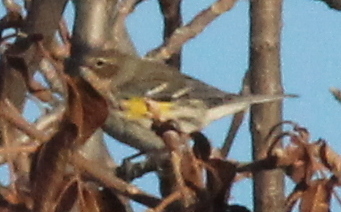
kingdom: Animalia
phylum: Chordata
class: Aves
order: Passeriformes
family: Parulidae
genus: Setophaga
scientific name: Setophaga coronata
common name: Myrtle warbler
